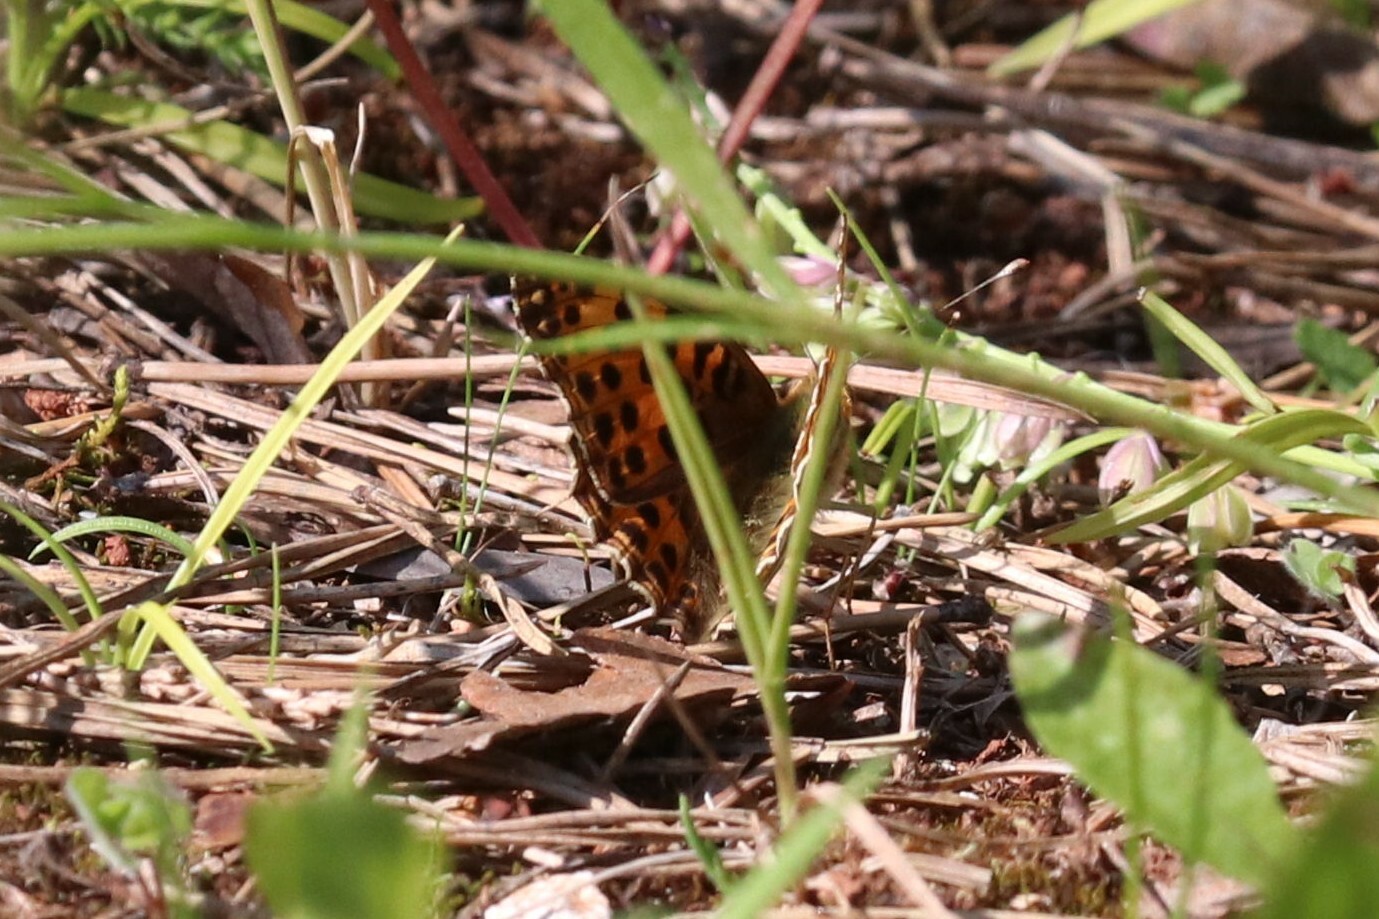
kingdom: Animalia
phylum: Arthropoda
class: Insecta
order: Lepidoptera
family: Nymphalidae
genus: Issoria
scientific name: Issoria lathonia
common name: Queen of spain fritillary
